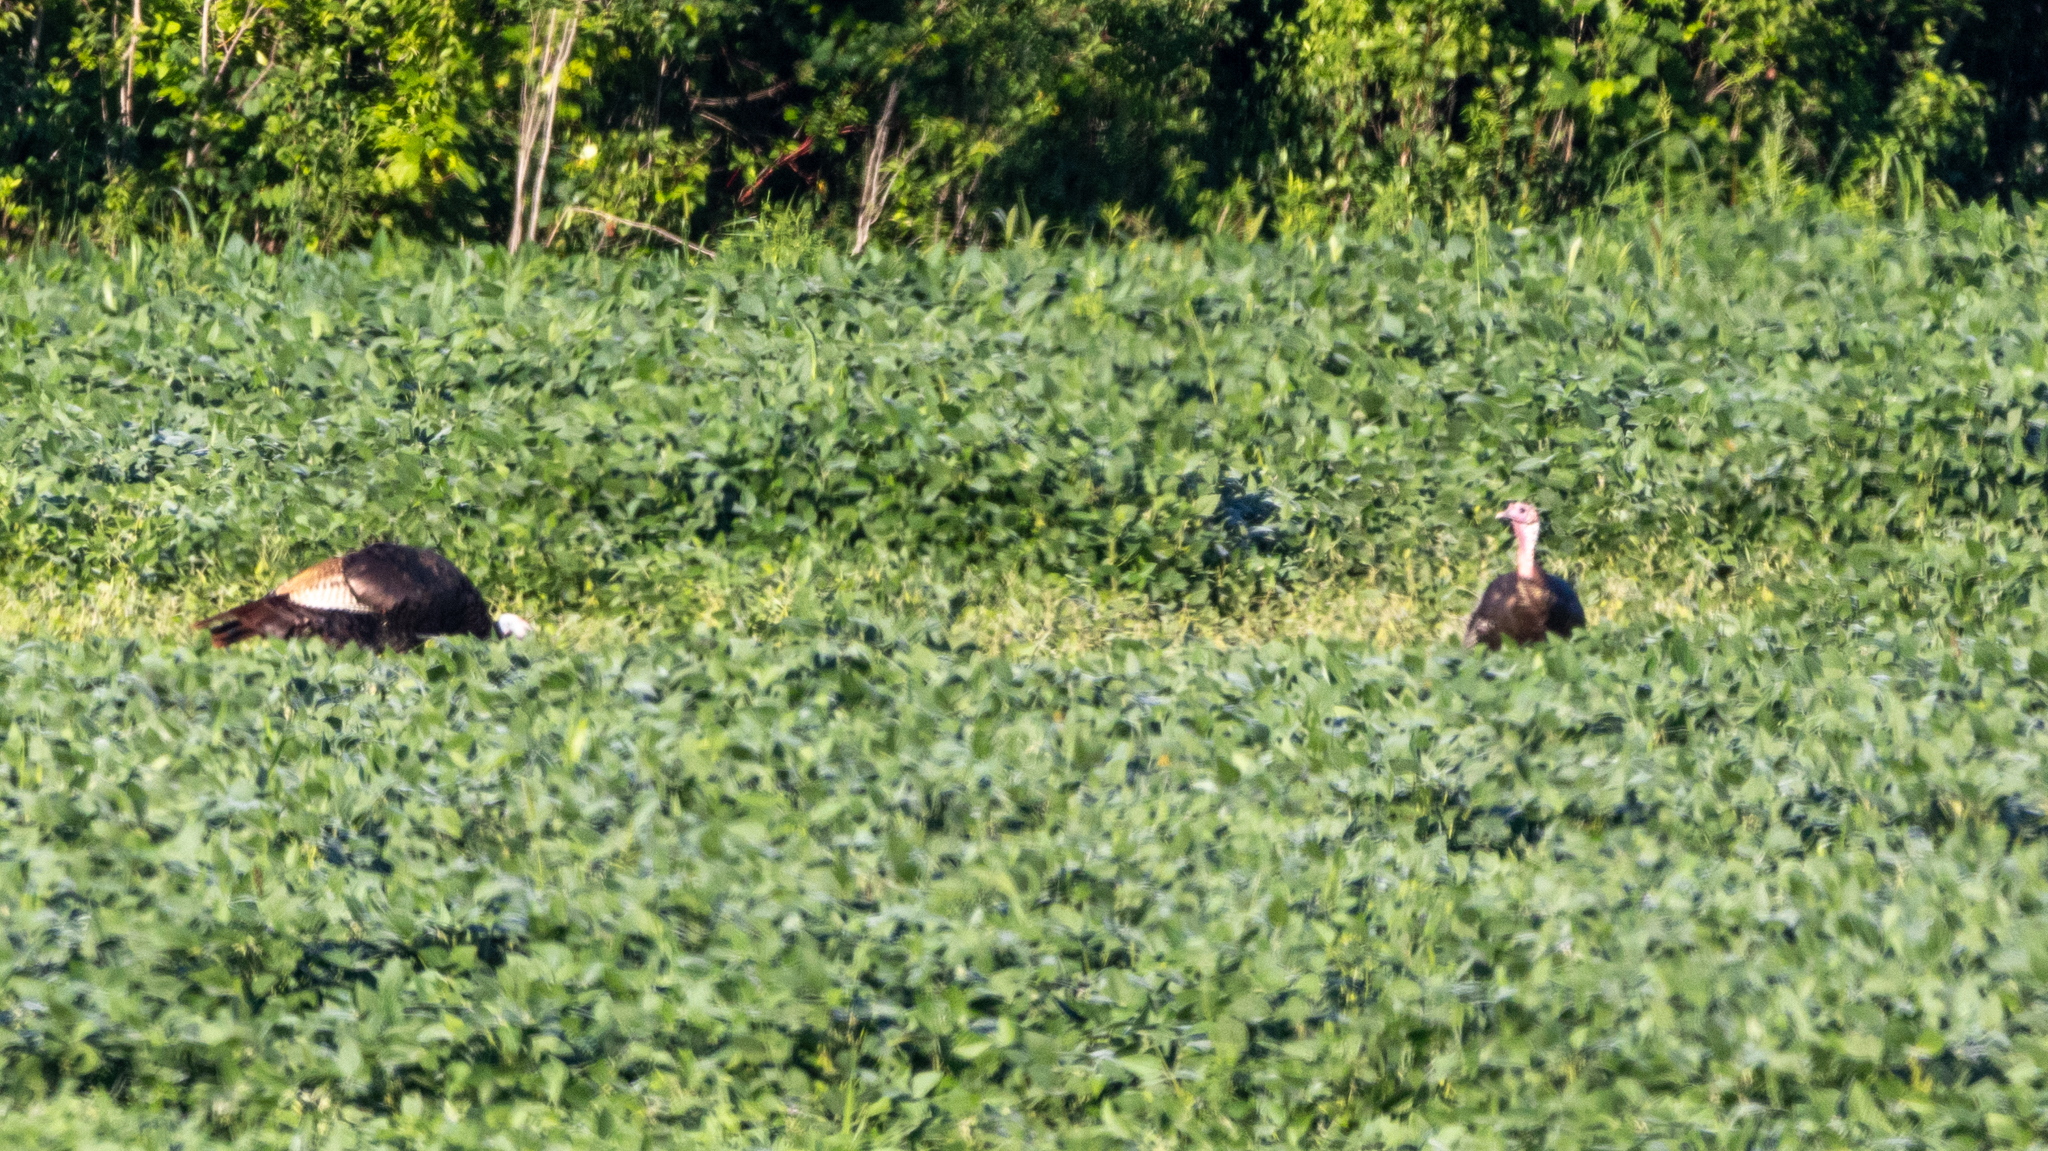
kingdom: Animalia
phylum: Chordata
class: Aves
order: Galliformes
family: Phasianidae
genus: Meleagris
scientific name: Meleagris gallopavo
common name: Wild turkey
